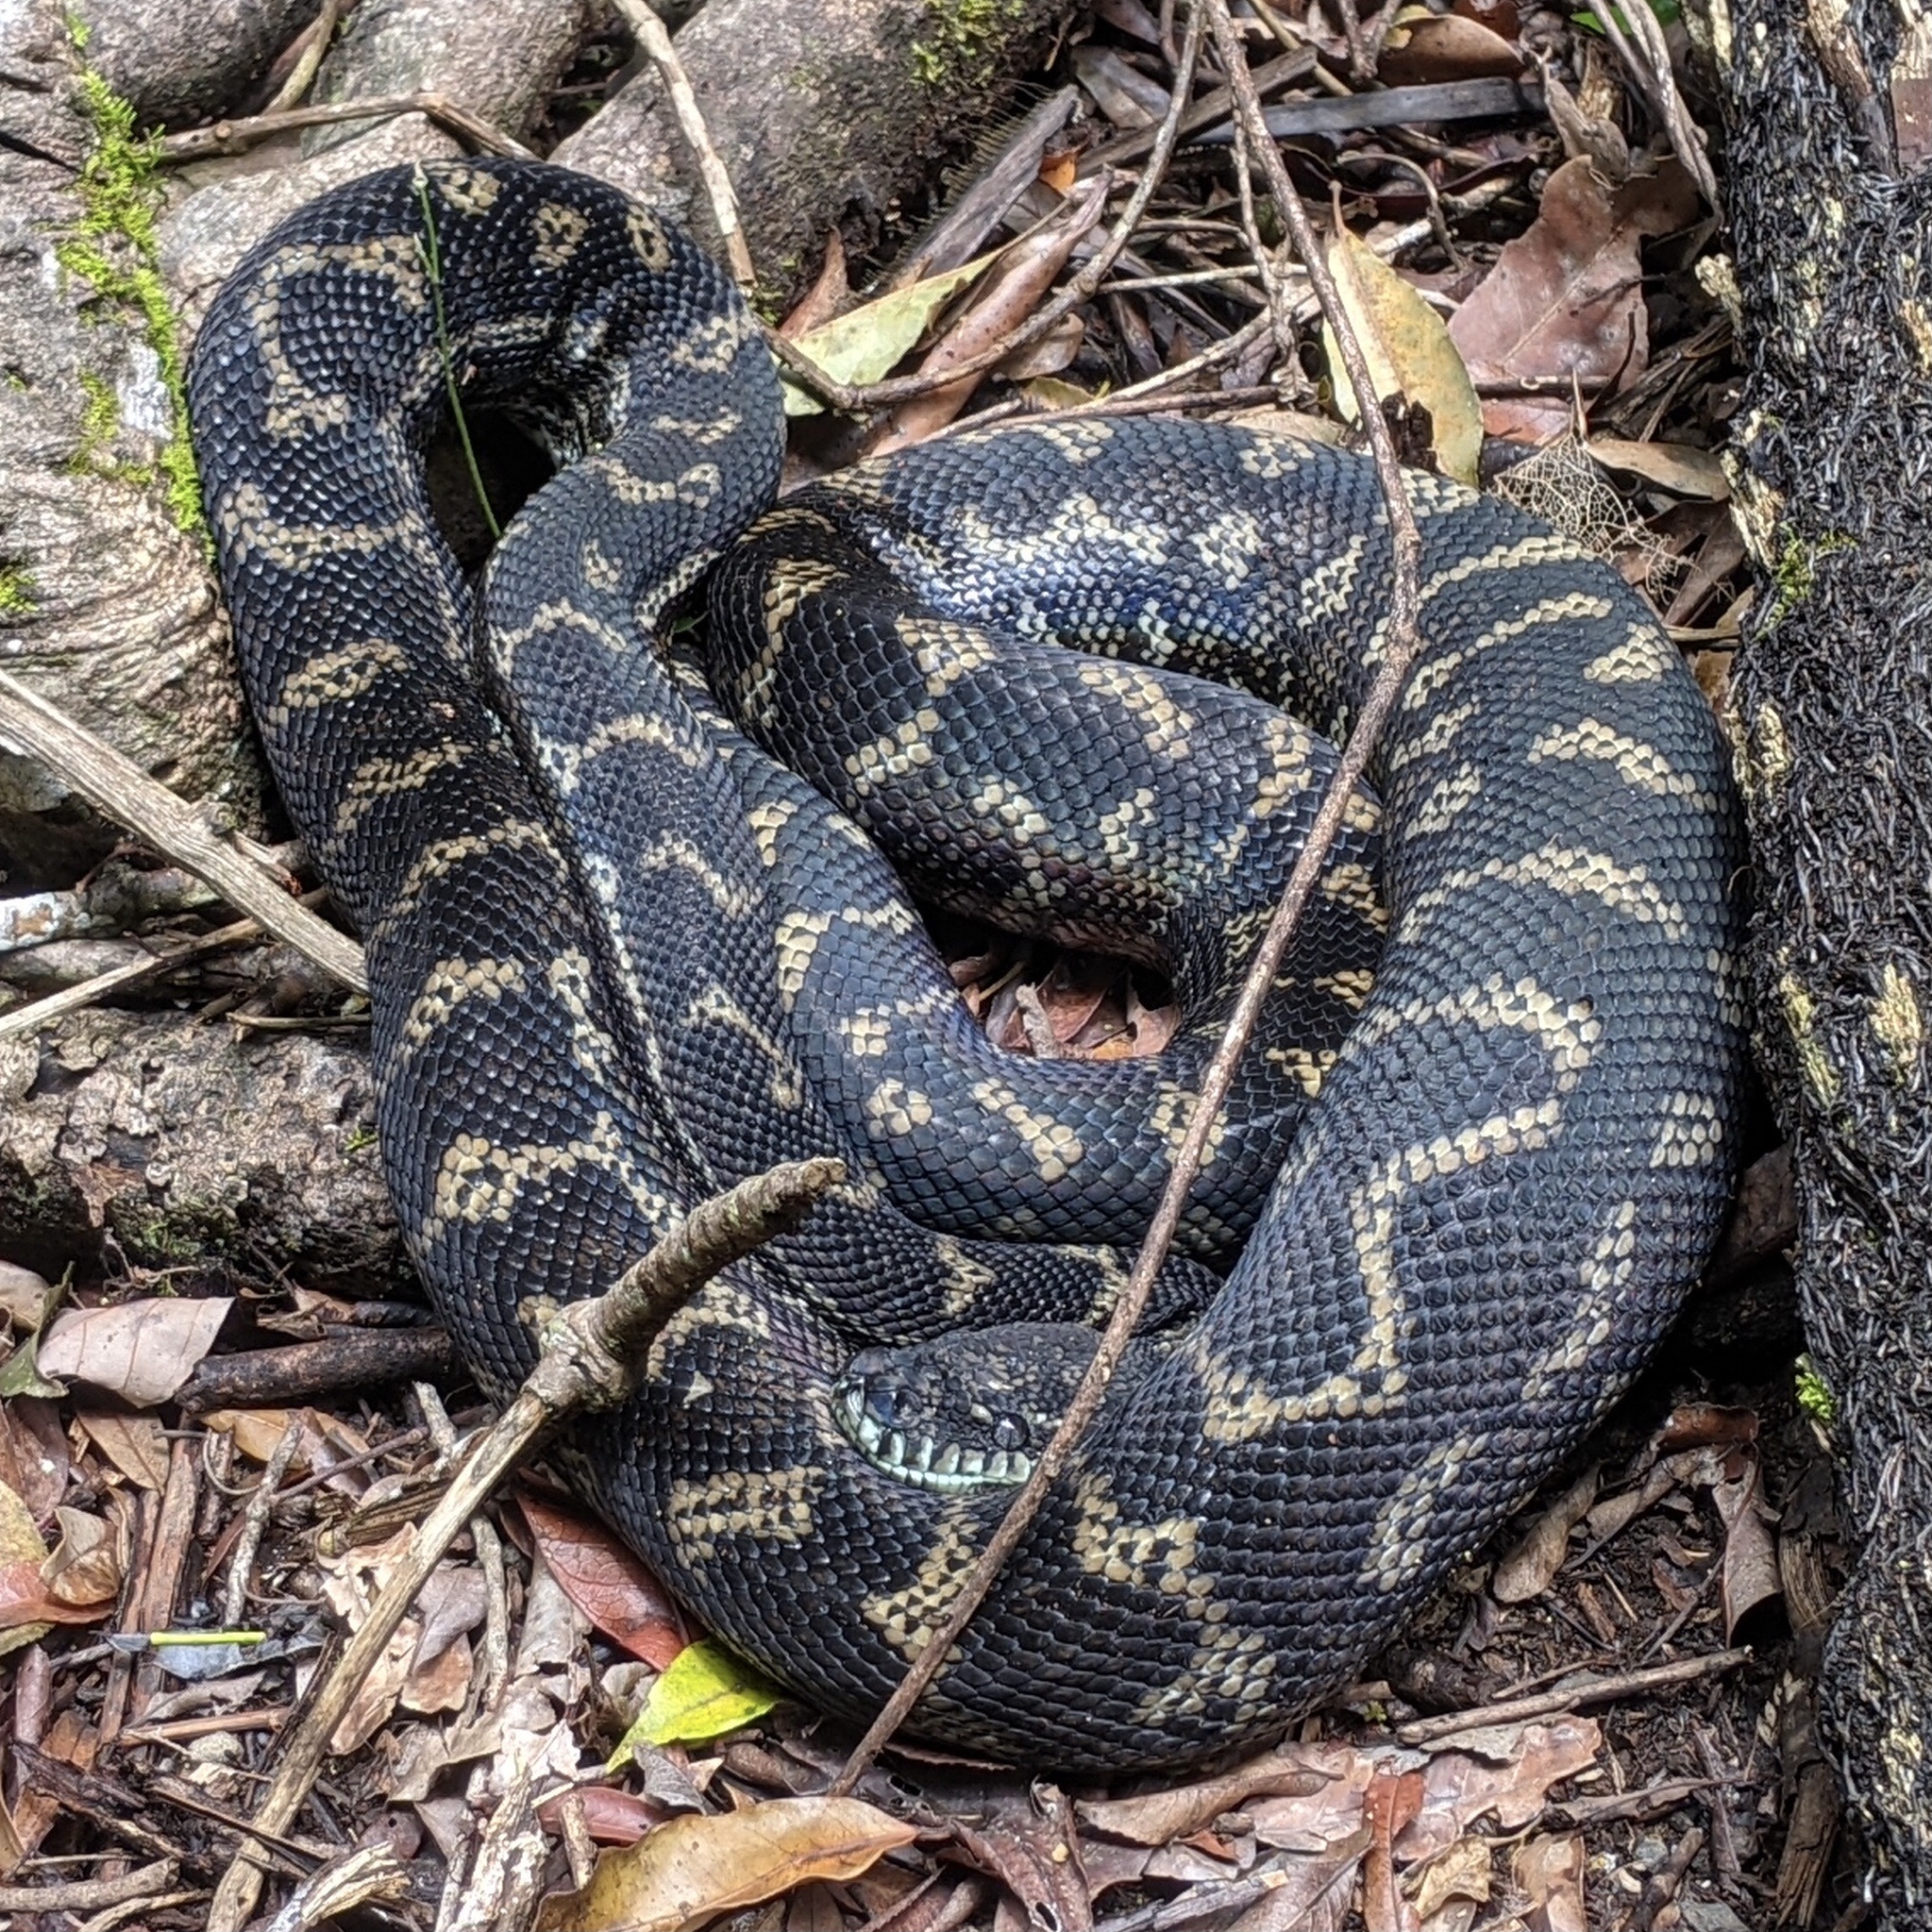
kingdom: Animalia
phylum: Chordata
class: Squamata
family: Pythonidae
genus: Morelia
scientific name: Morelia spilota
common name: Carpet python
